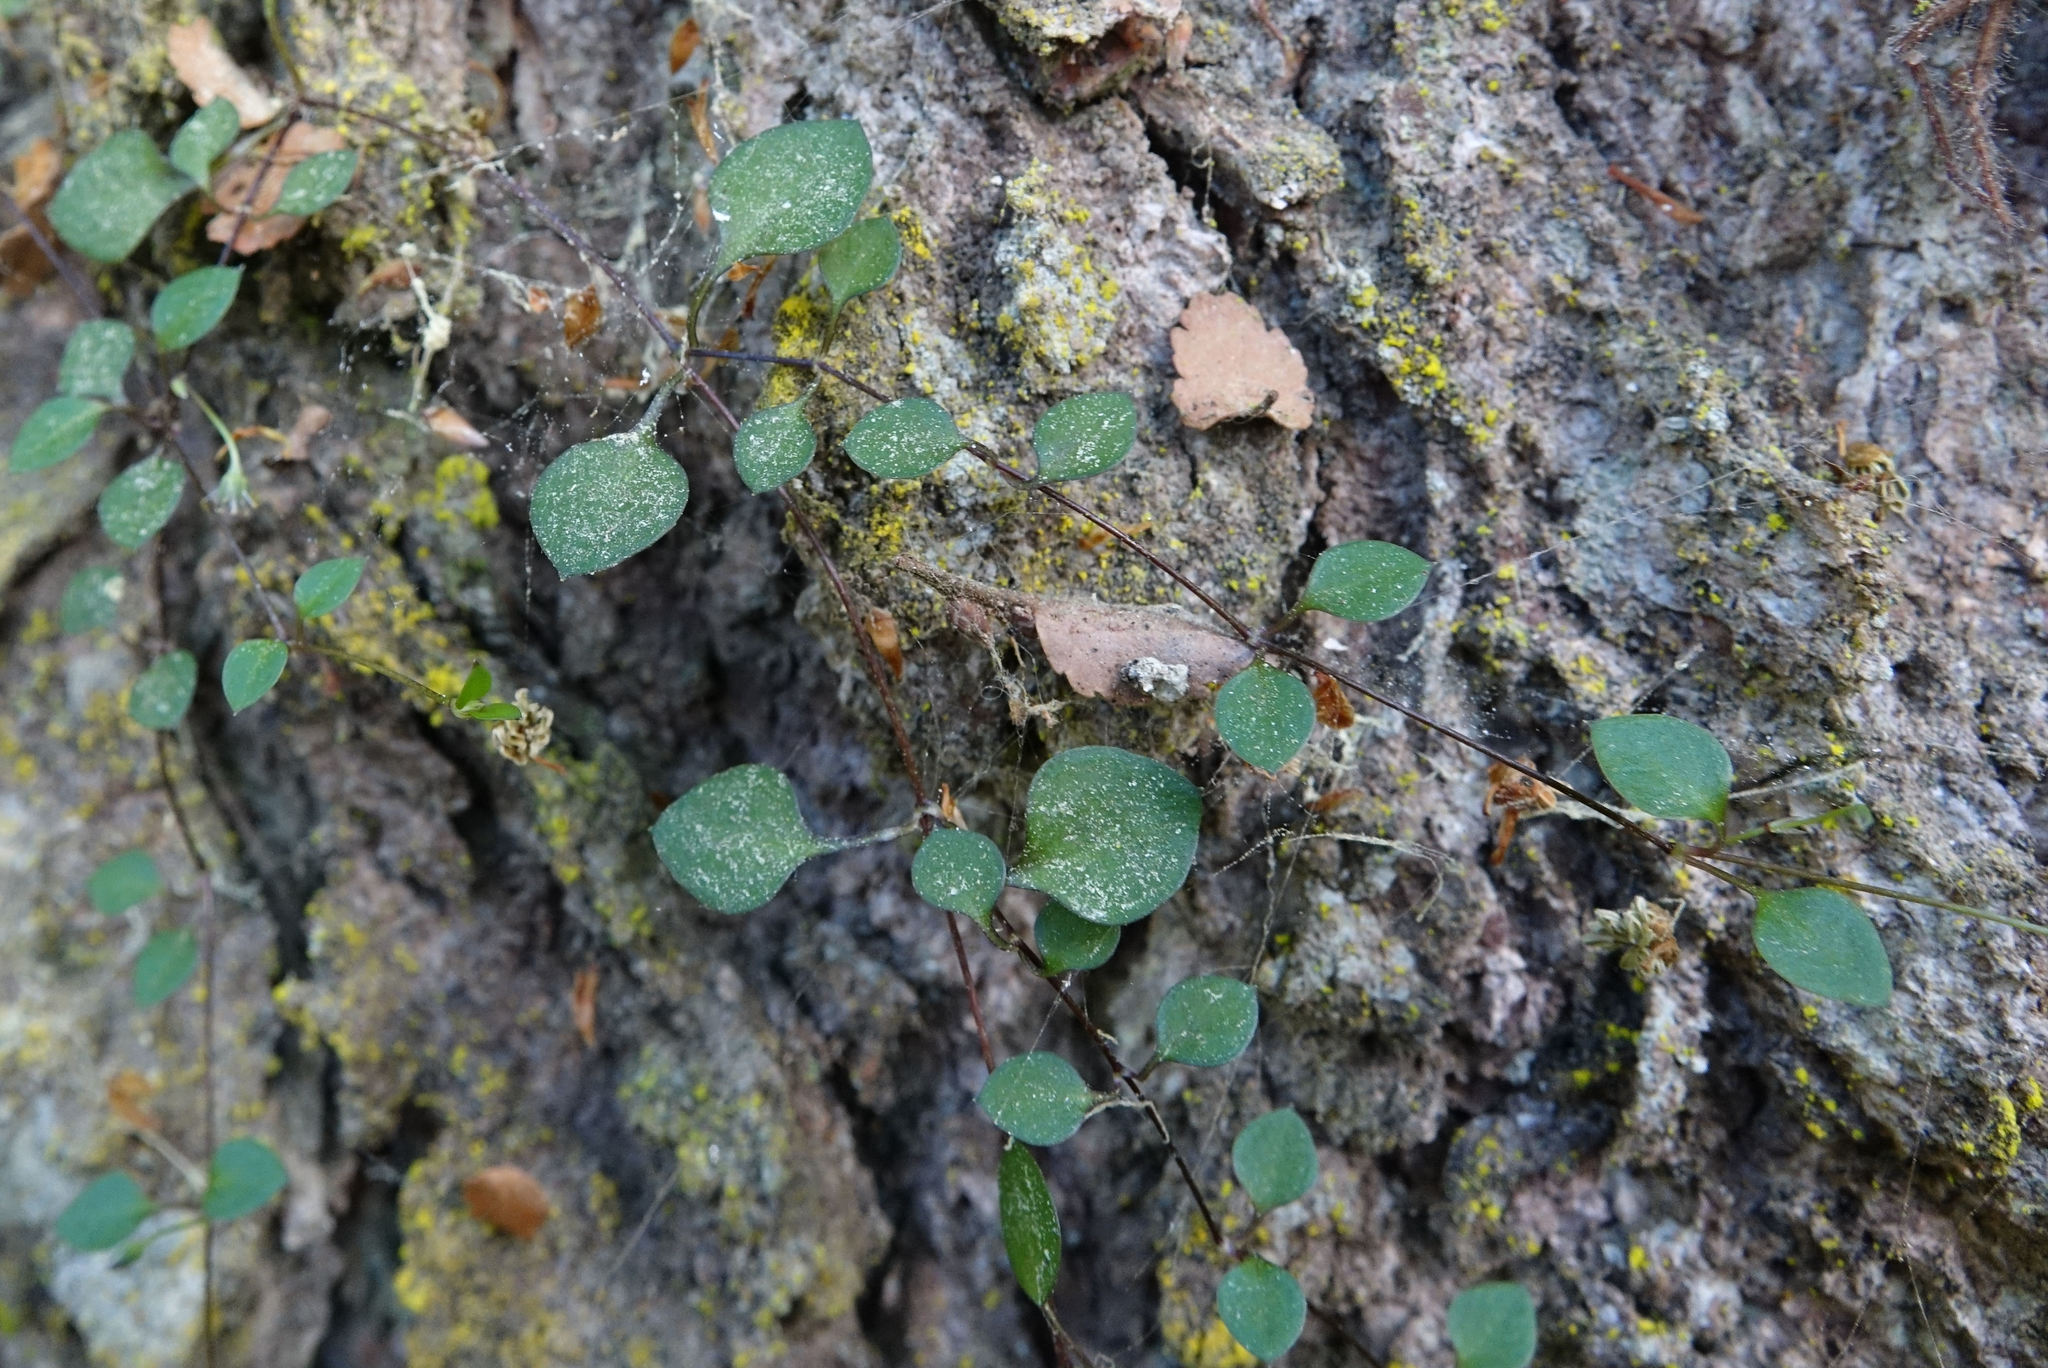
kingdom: Plantae
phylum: Tracheophyta
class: Magnoliopsida
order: Caryophyllales
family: Caryophyllaceae
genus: Stellaria
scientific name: Stellaria parviflora
